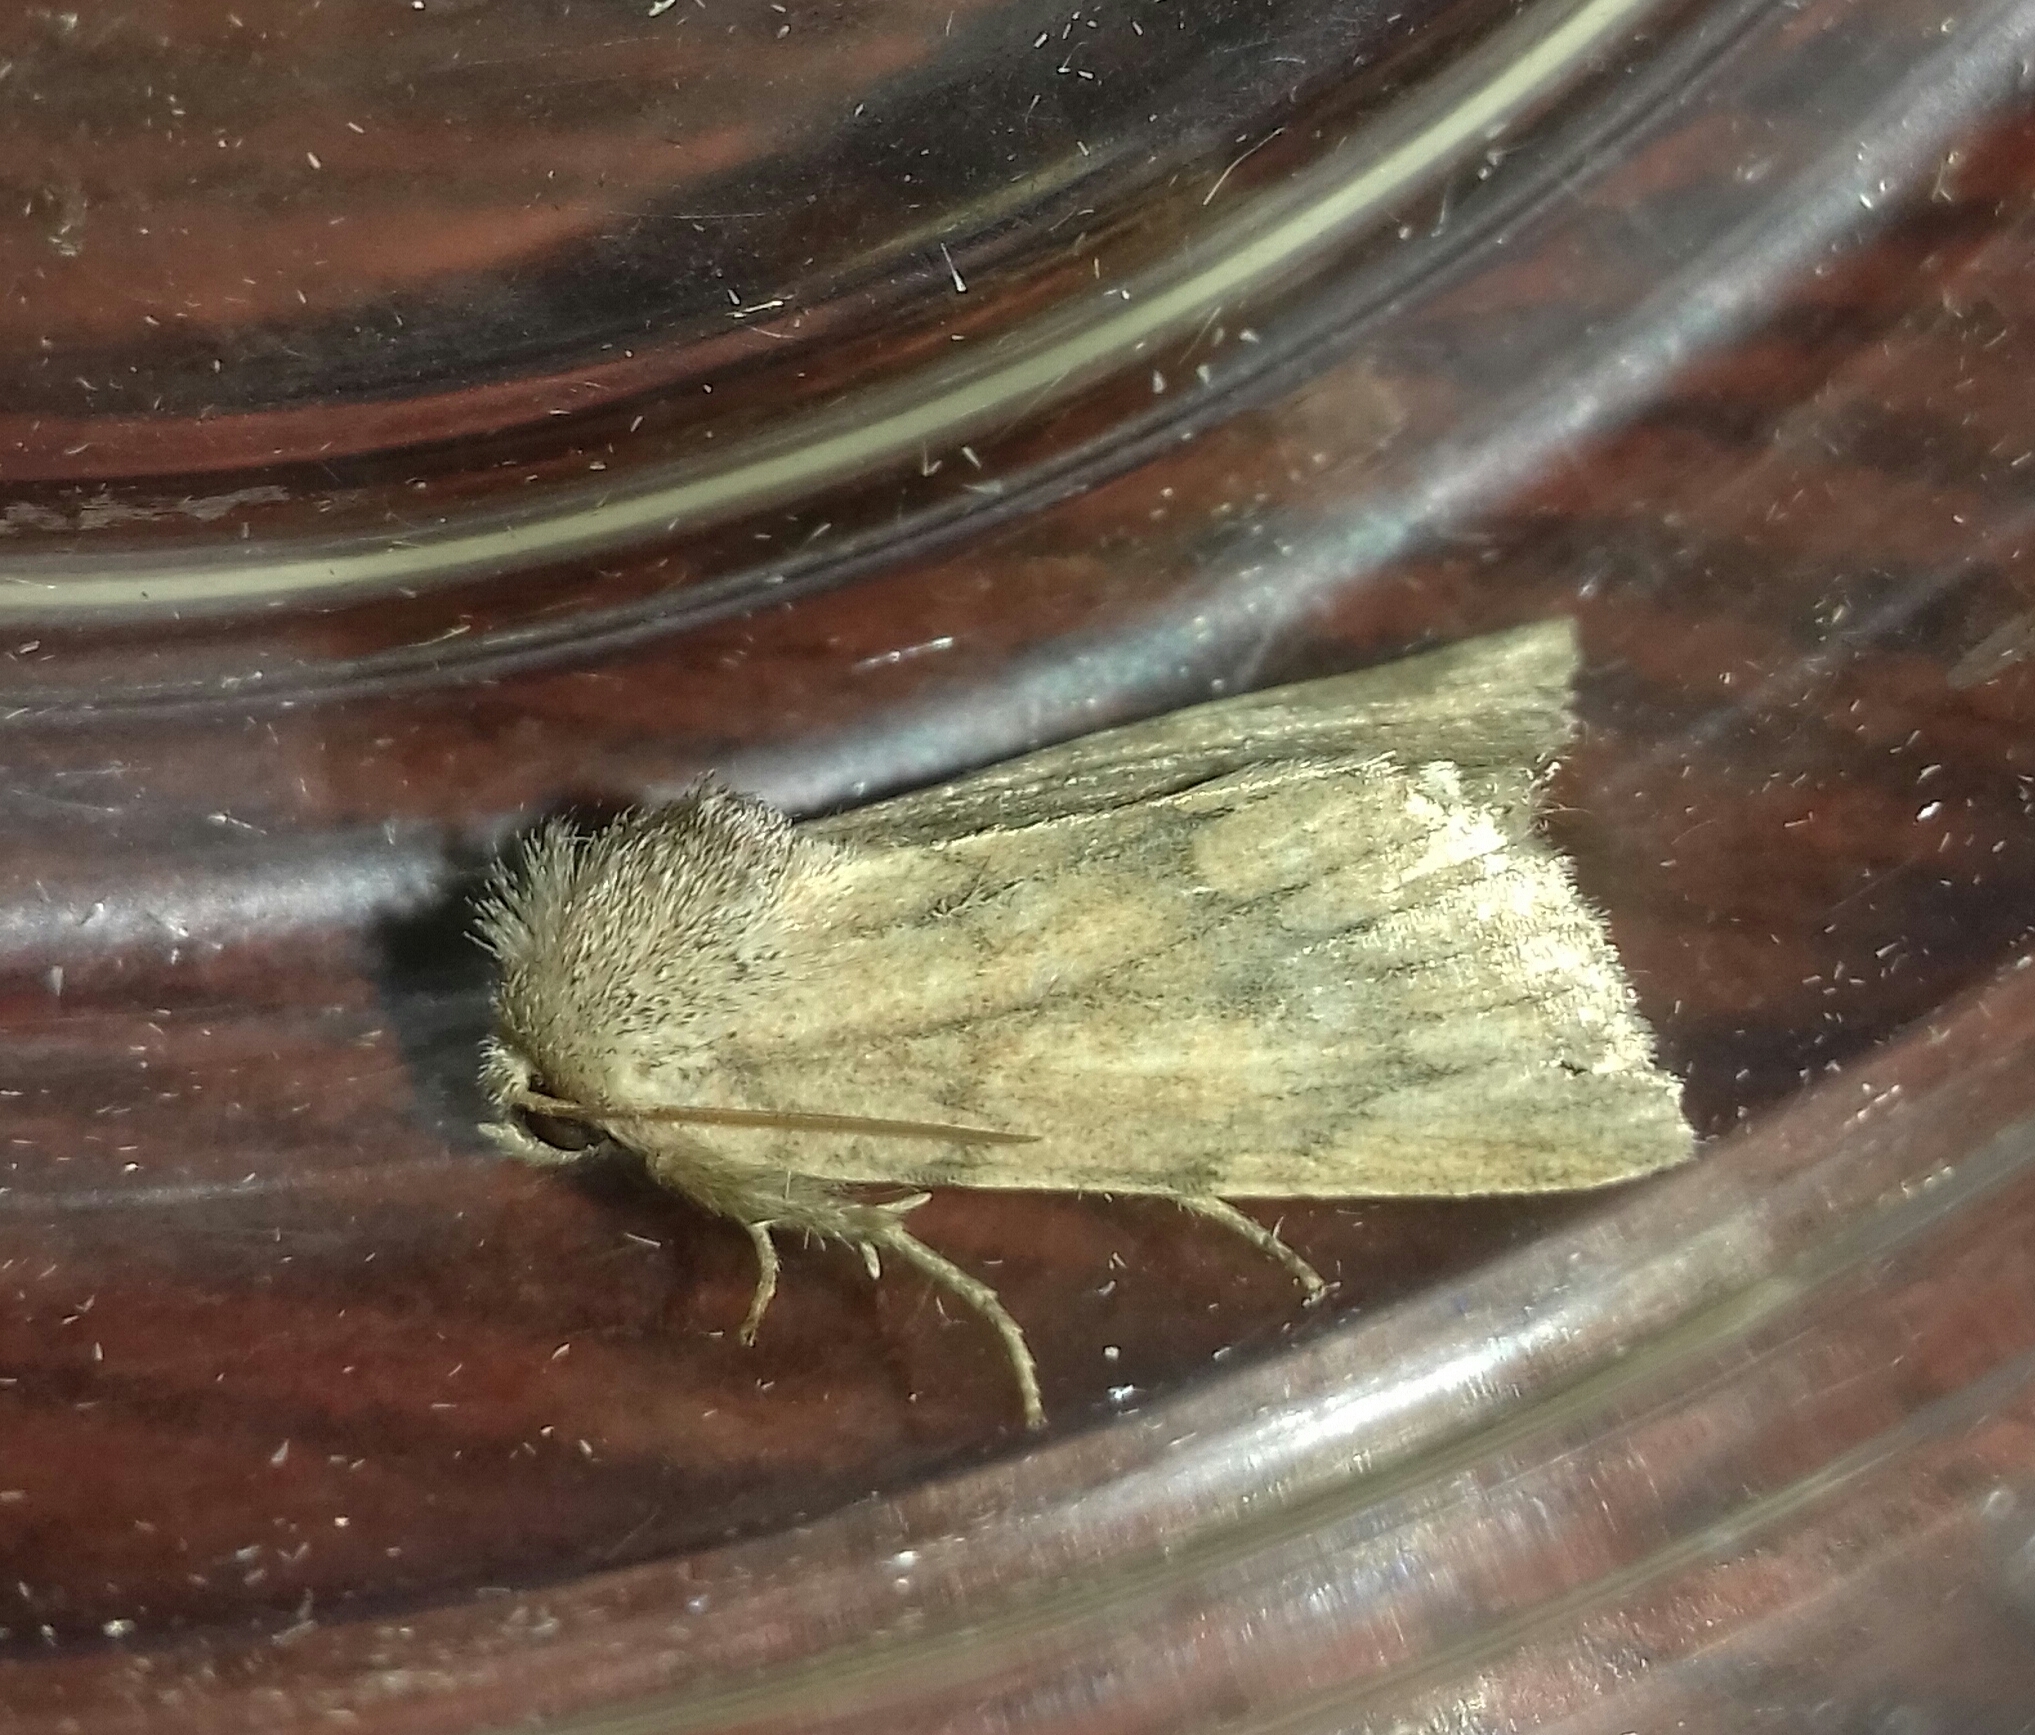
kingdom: Animalia
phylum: Arthropoda
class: Insecta
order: Lepidoptera
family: Noctuidae
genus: Photedes
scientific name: Photedes fluxa
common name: Mere wainscot
